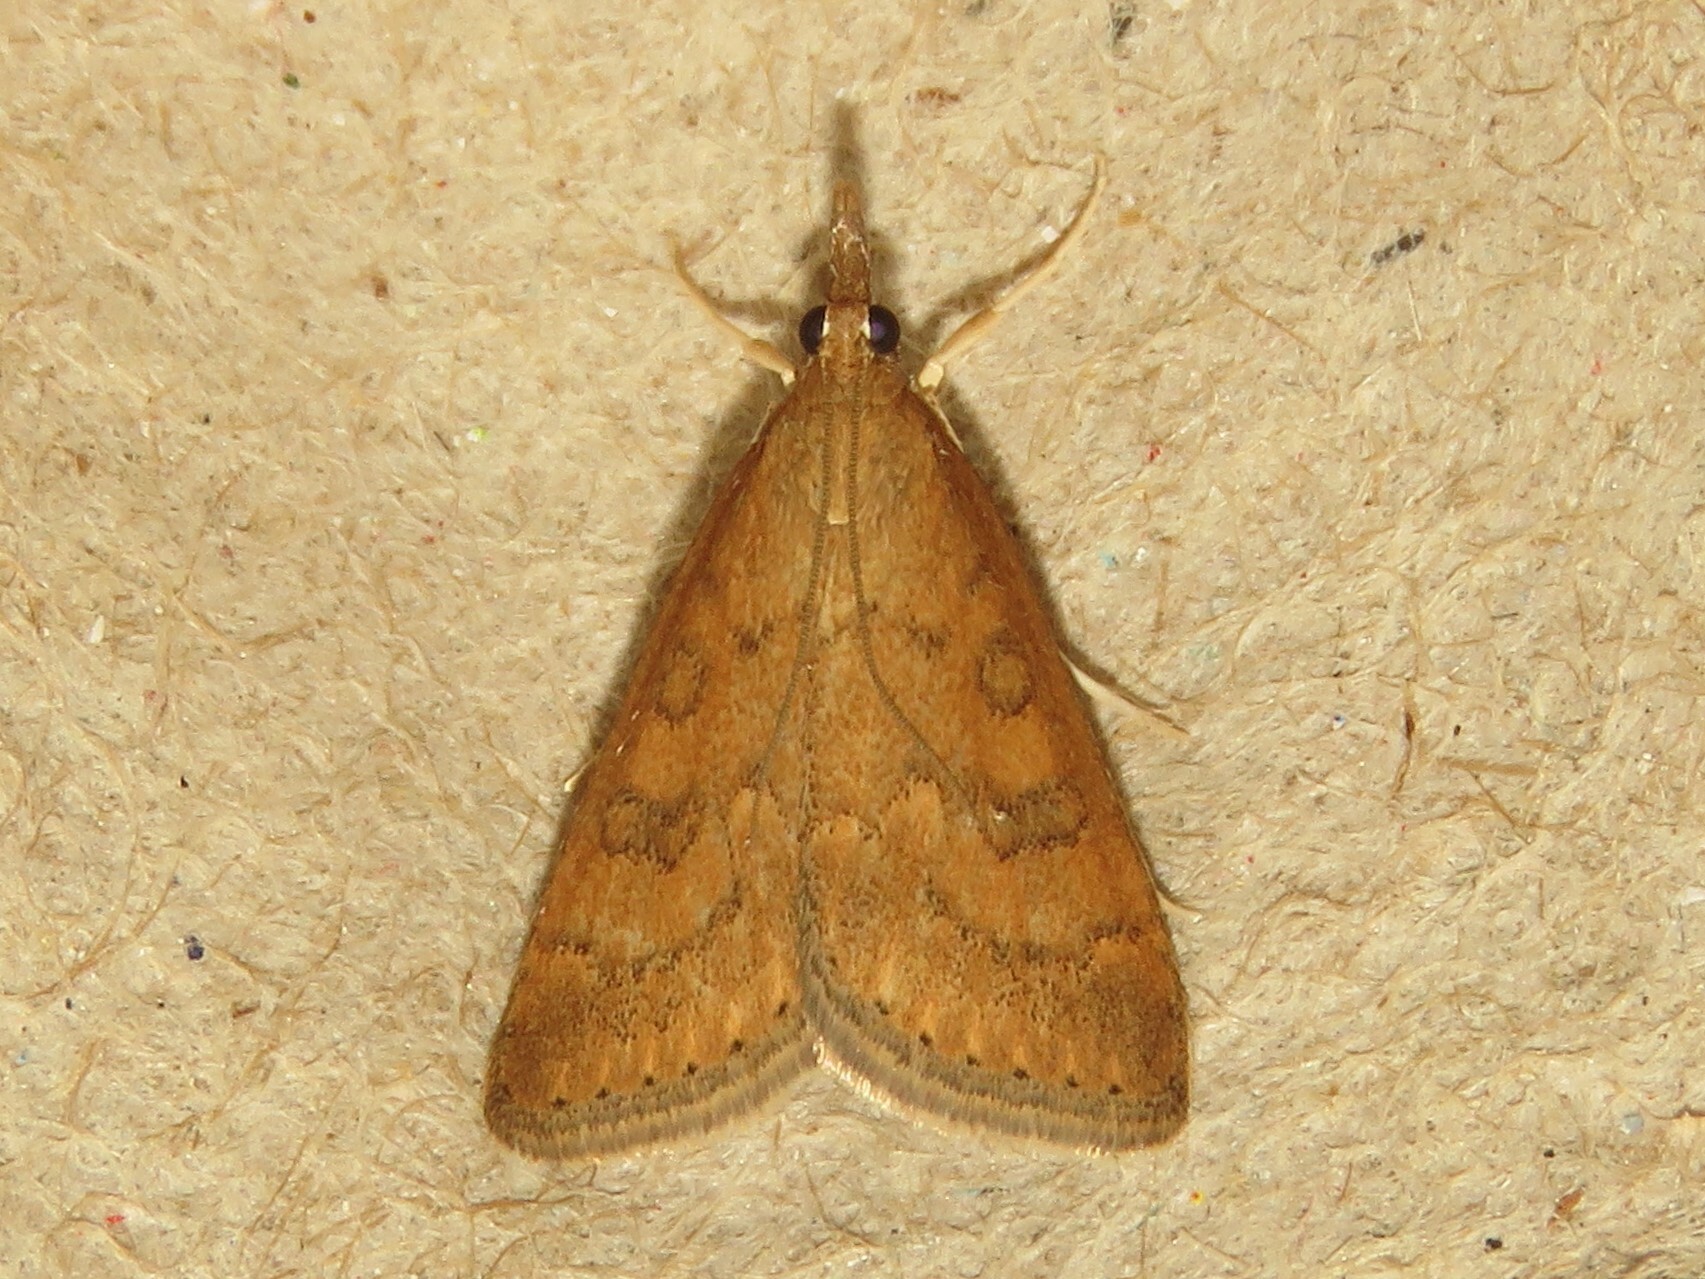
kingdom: Animalia
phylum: Arthropoda
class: Insecta
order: Lepidoptera
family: Crambidae
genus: Udea
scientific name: Udea rubigalis
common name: Celery leaftier moth
